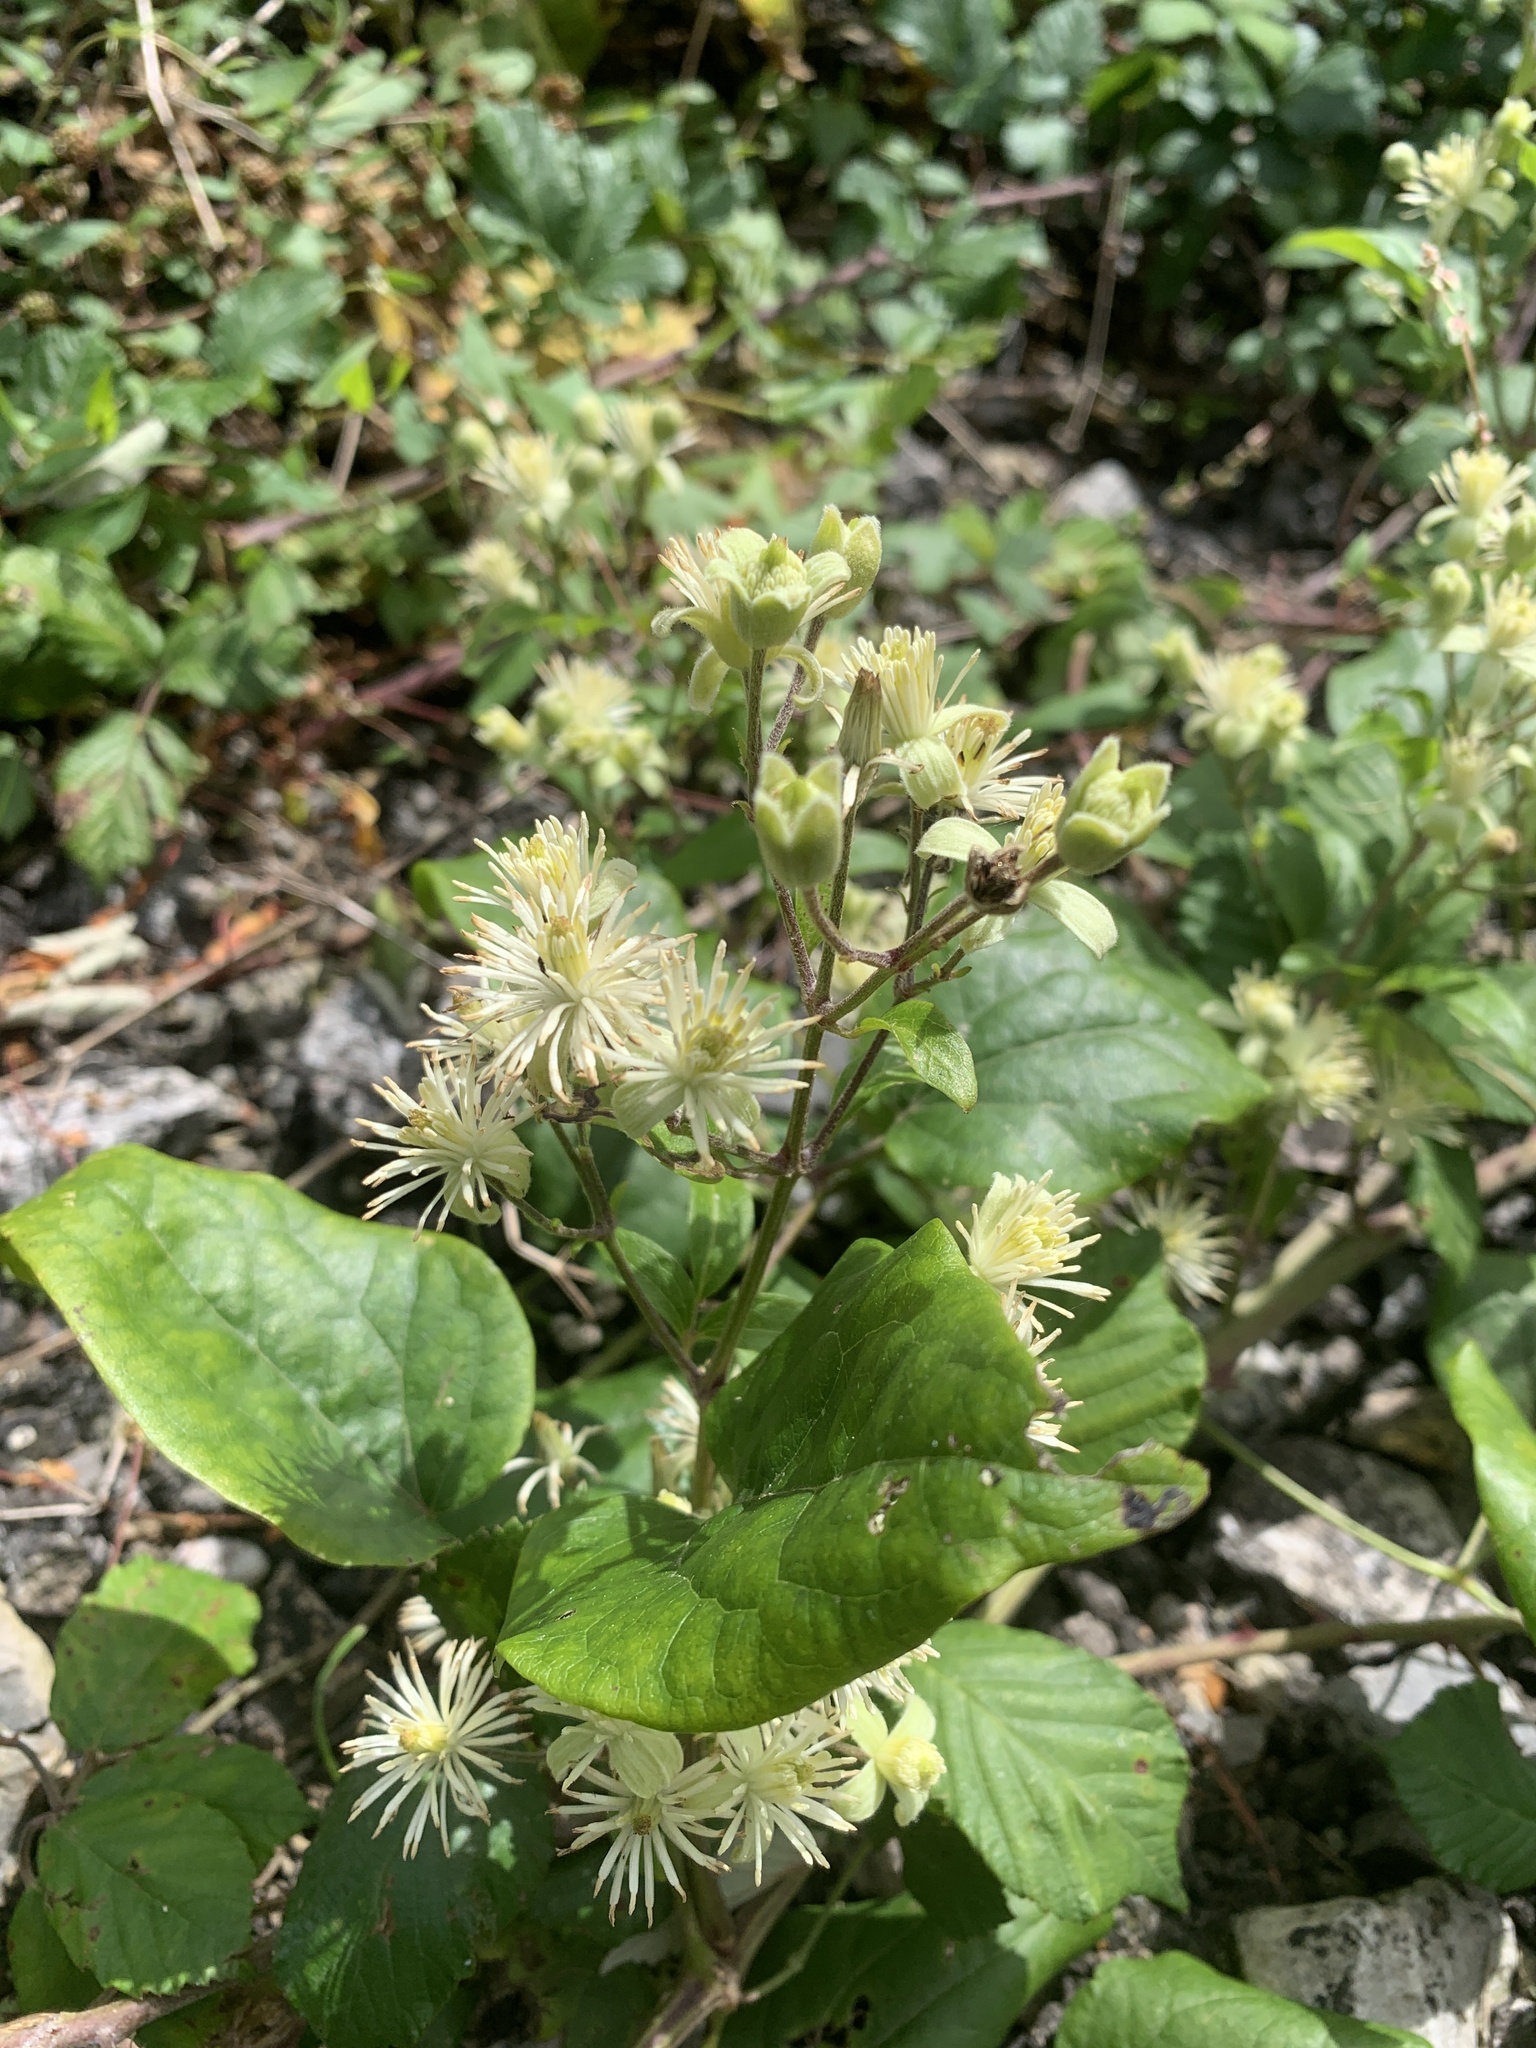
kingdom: Plantae
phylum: Tracheophyta
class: Magnoliopsida
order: Ranunculales
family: Ranunculaceae
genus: Clematis
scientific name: Clematis vitalba
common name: Evergreen clematis
